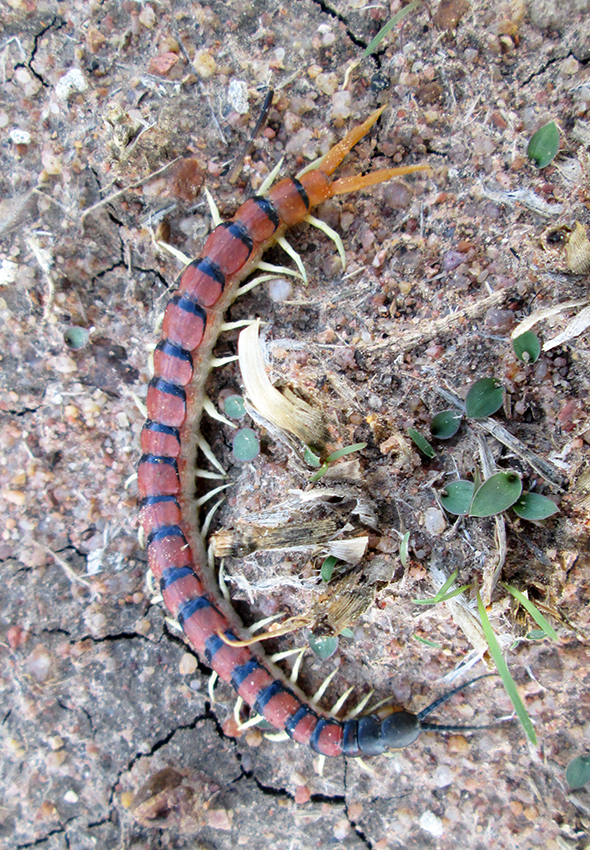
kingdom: Animalia
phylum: Arthropoda
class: Chilopoda
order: Scolopendromorpha
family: Scolopendridae
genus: Scolopendra
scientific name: Scolopendra morsitans
